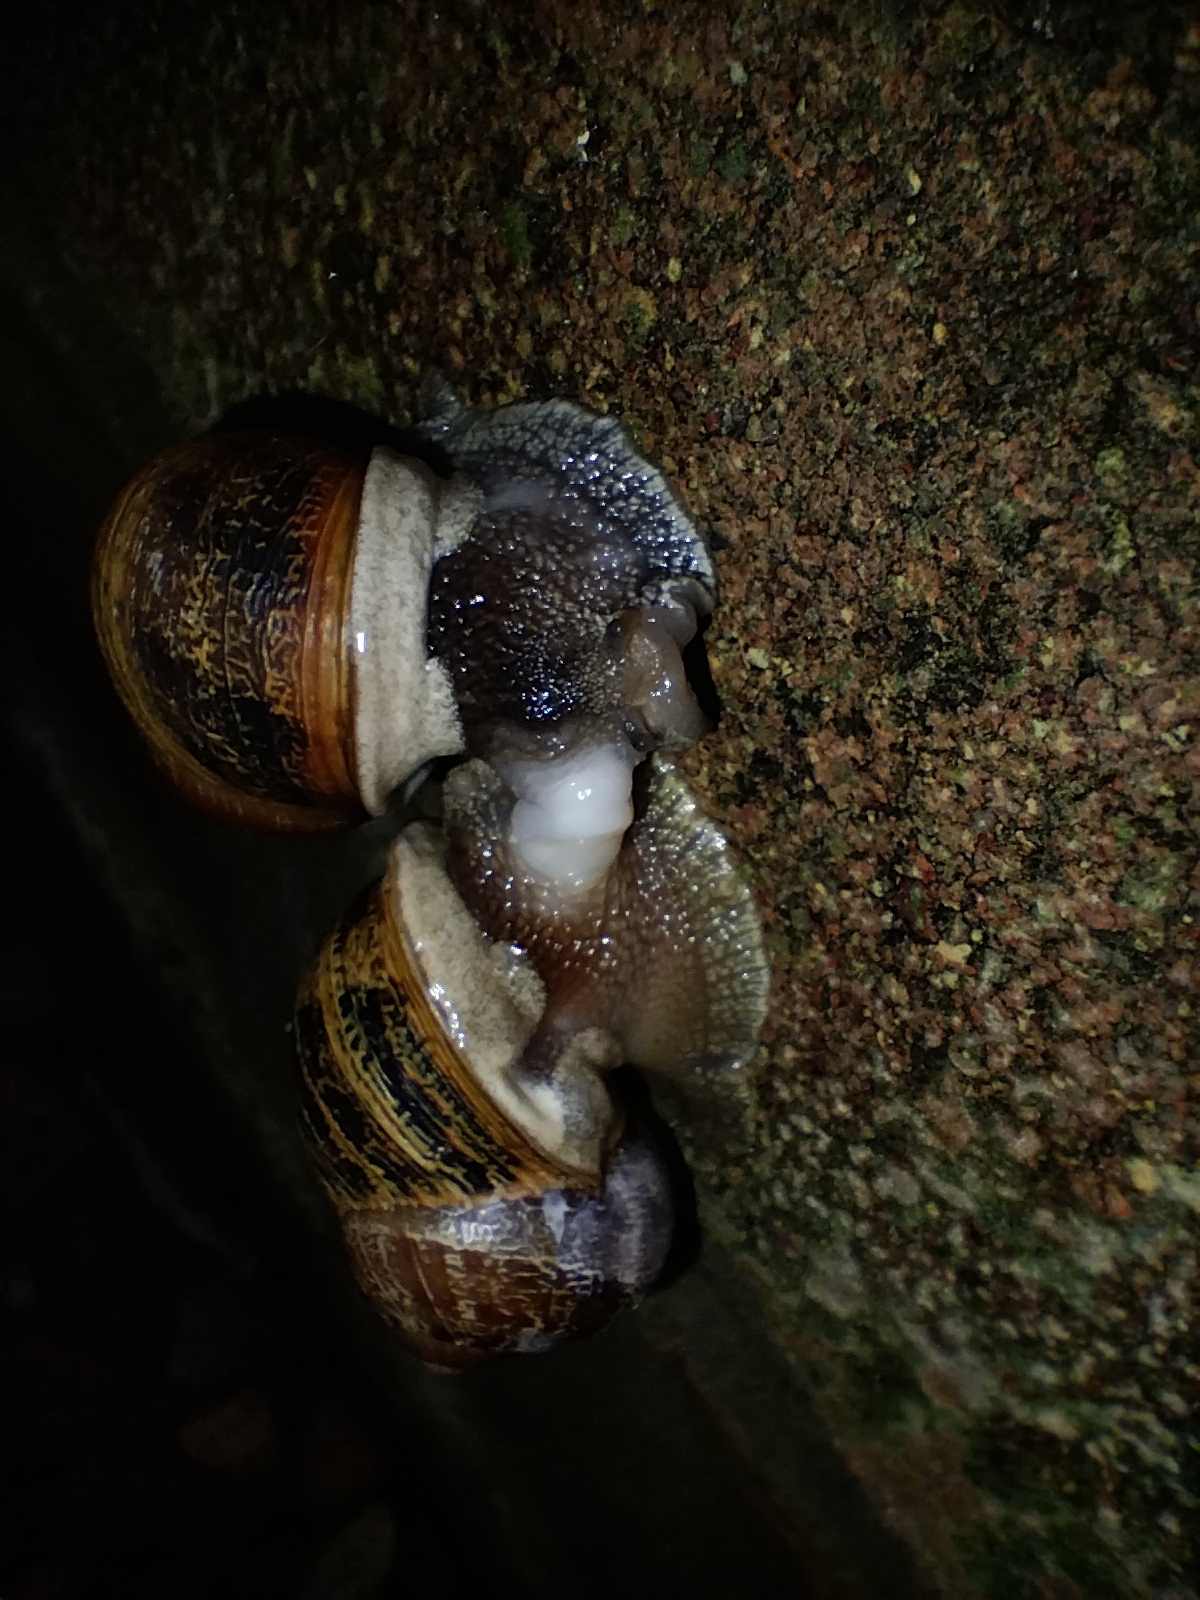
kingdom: Animalia
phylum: Mollusca
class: Gastropoda
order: Stylommatophora
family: Helicidae
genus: Cornu
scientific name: Cornu aspersum
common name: Brown garden snail
